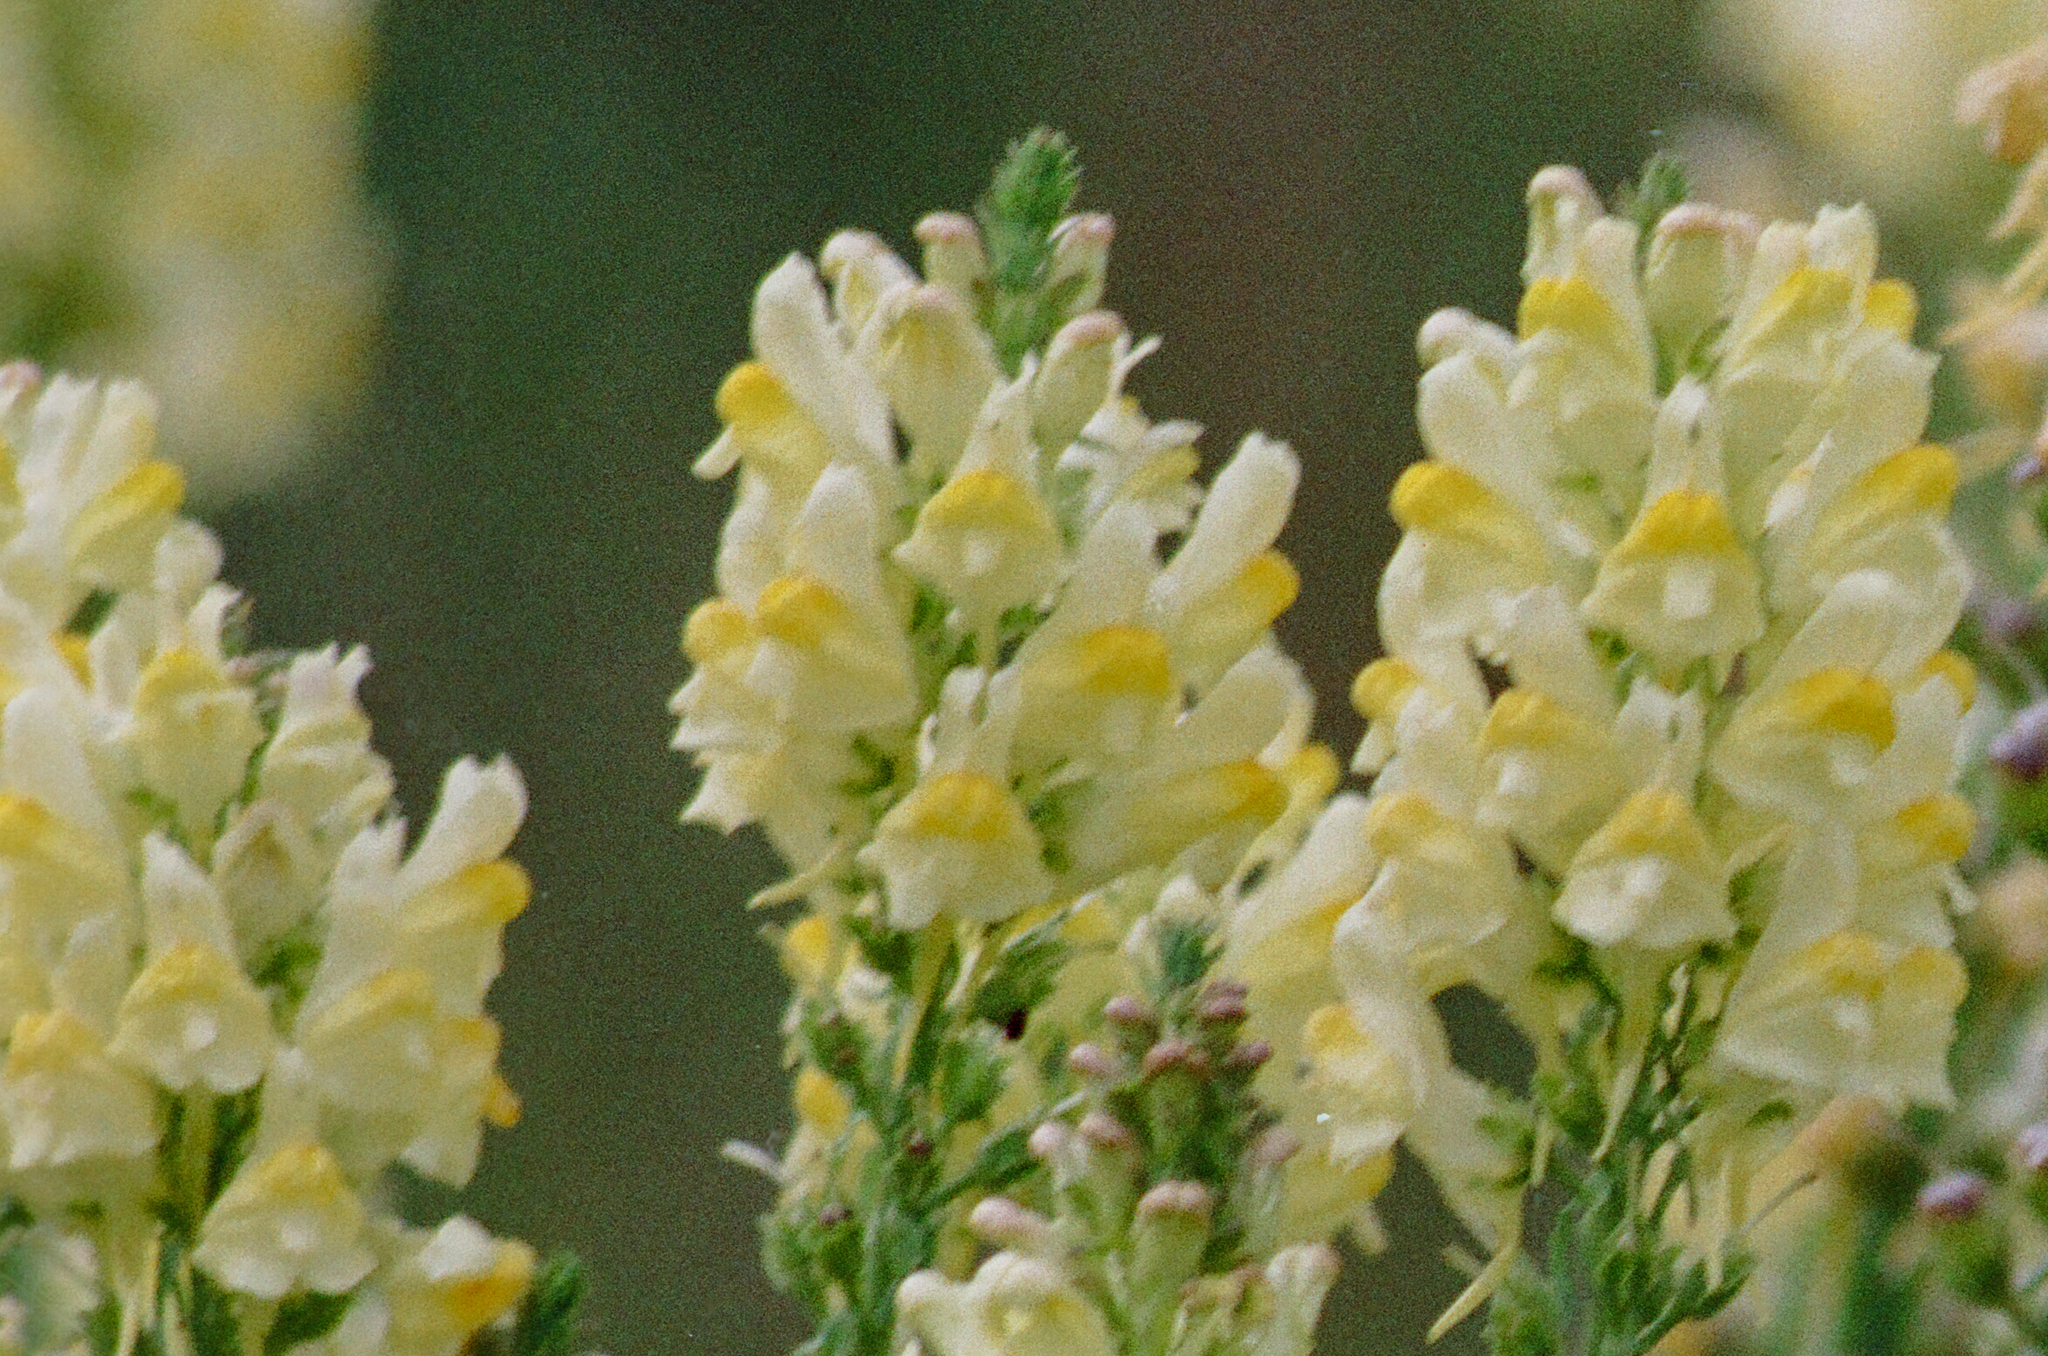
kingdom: Plantae
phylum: Tracheophyta
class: Magnoliopsida
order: Lamiales
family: Plantaginaceae
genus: Linaria
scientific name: Linaria vulgaris
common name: Butter and eggs
